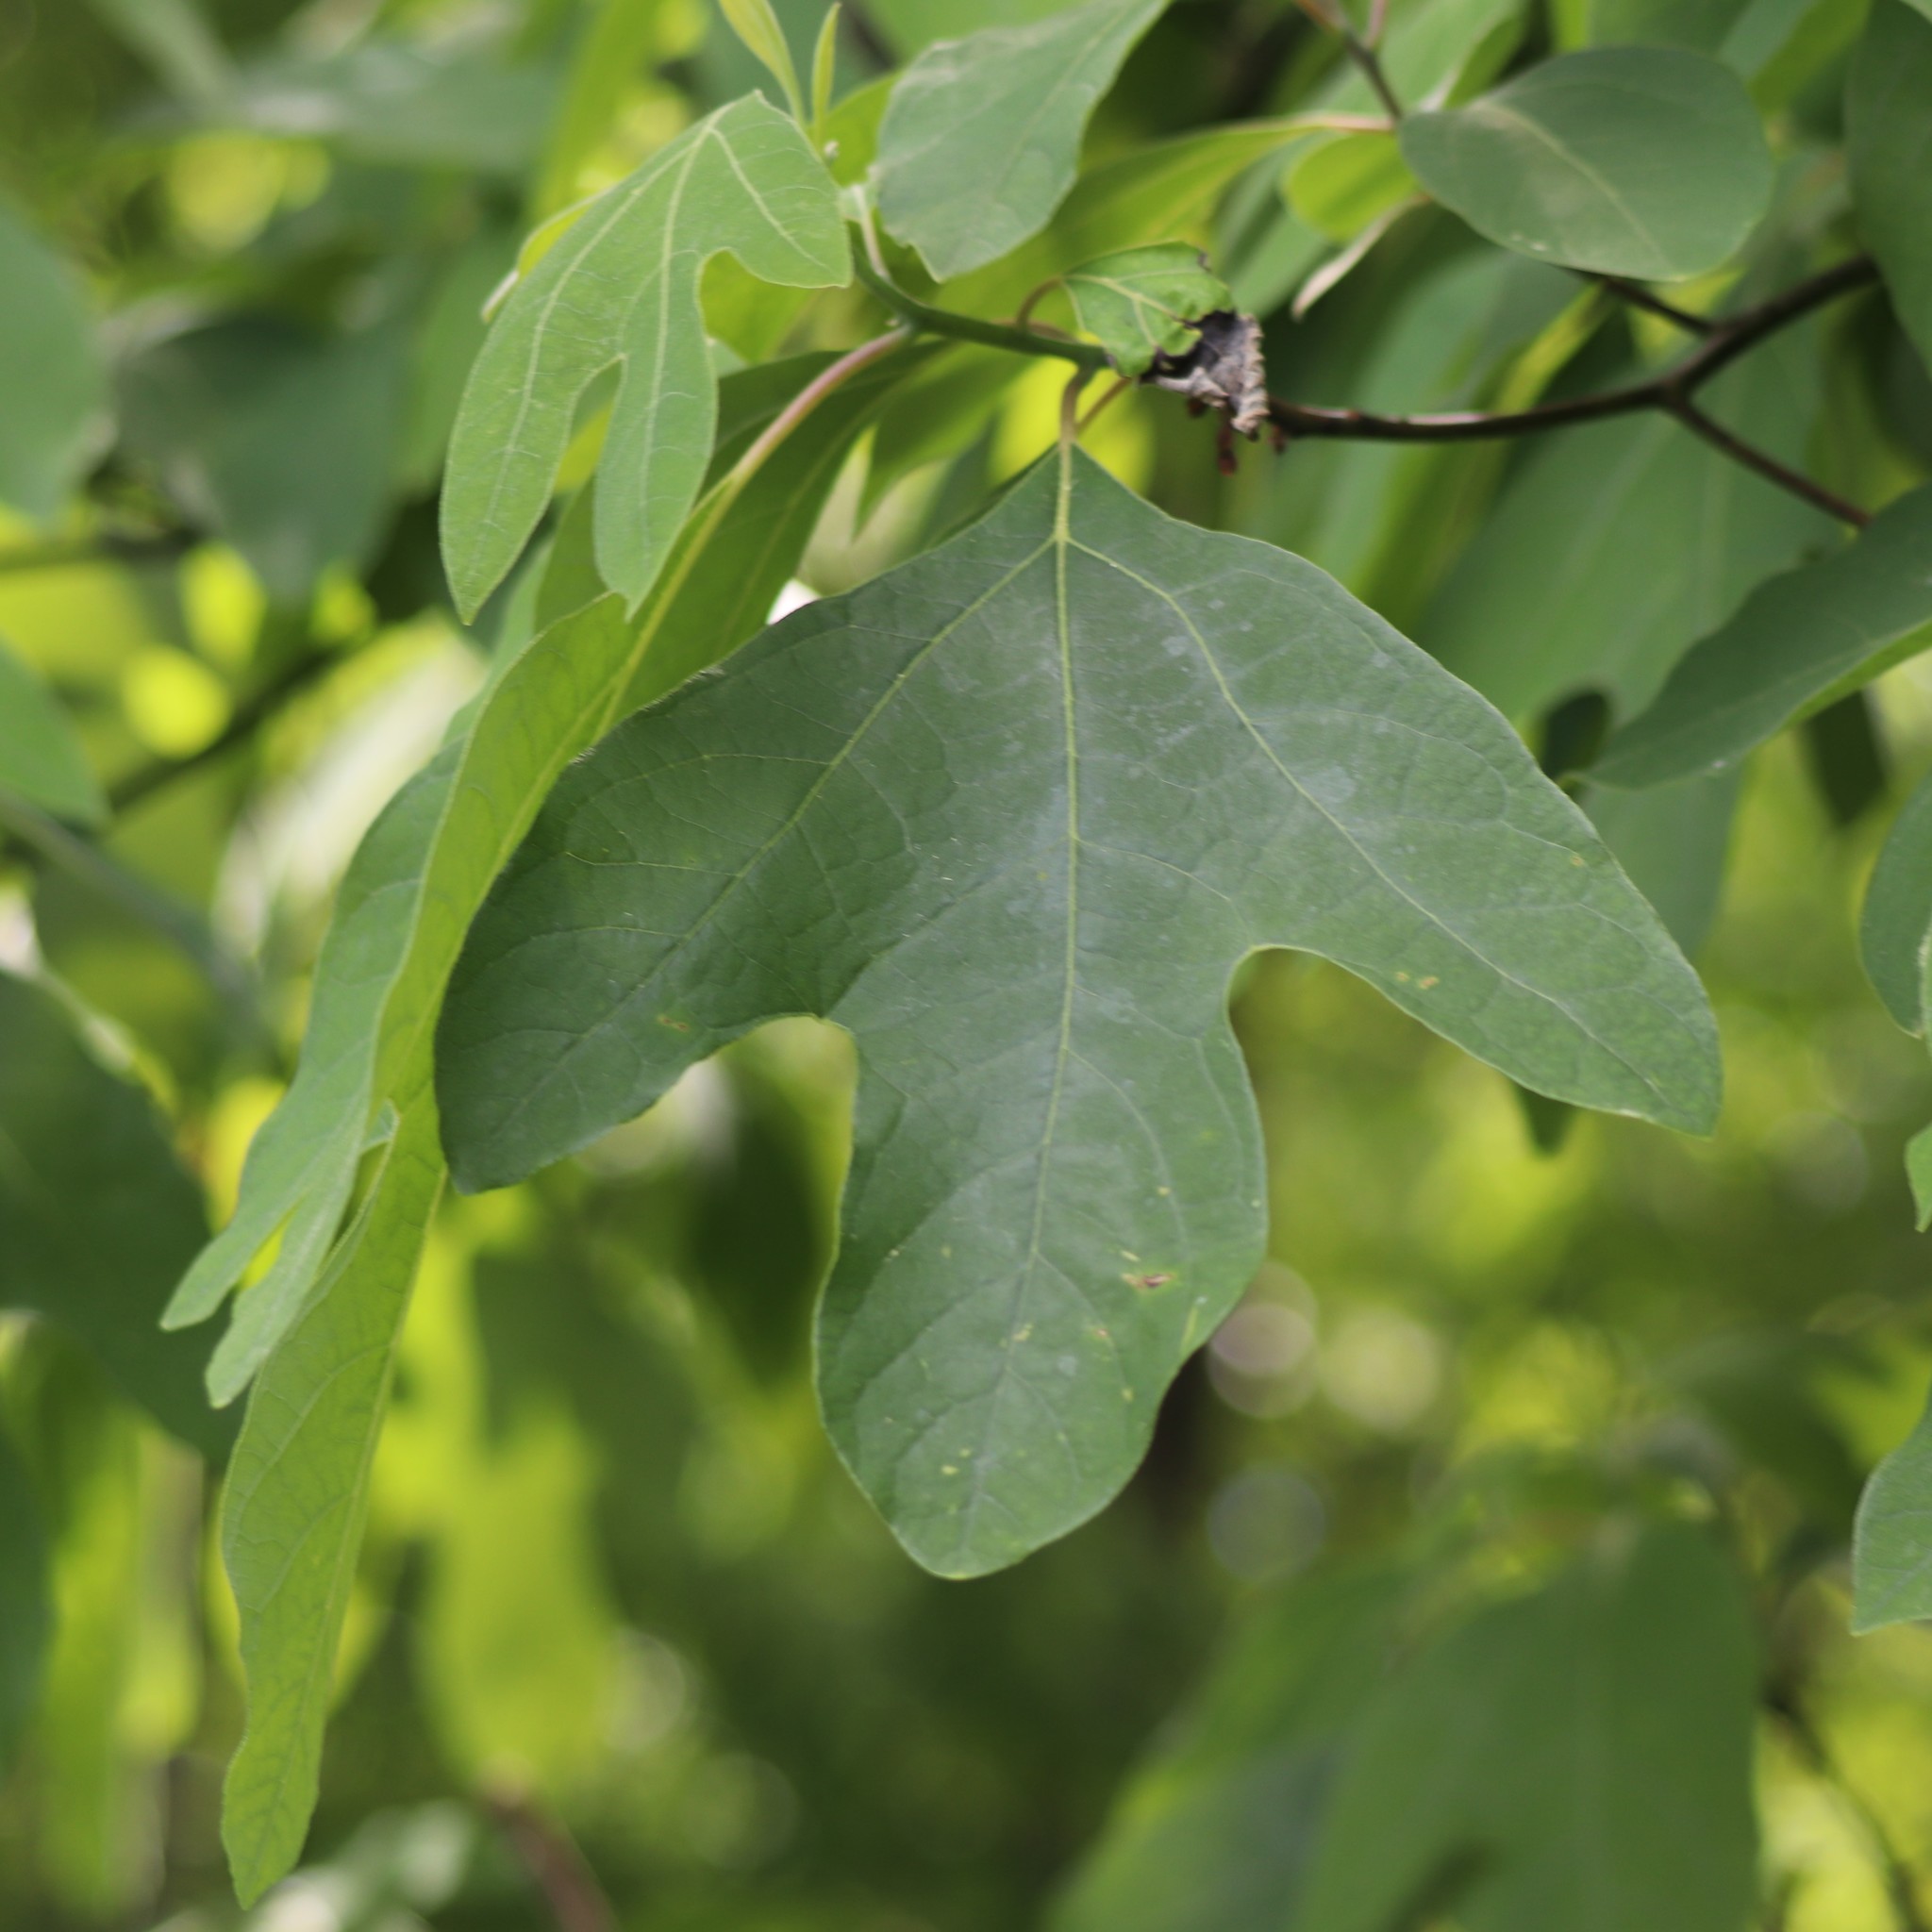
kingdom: Plantae
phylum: Tracheophyta
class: Magnoliopsida
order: Laurales
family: Lauraceae
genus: Sassafras
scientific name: Sassafras albidum
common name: Sassafras
